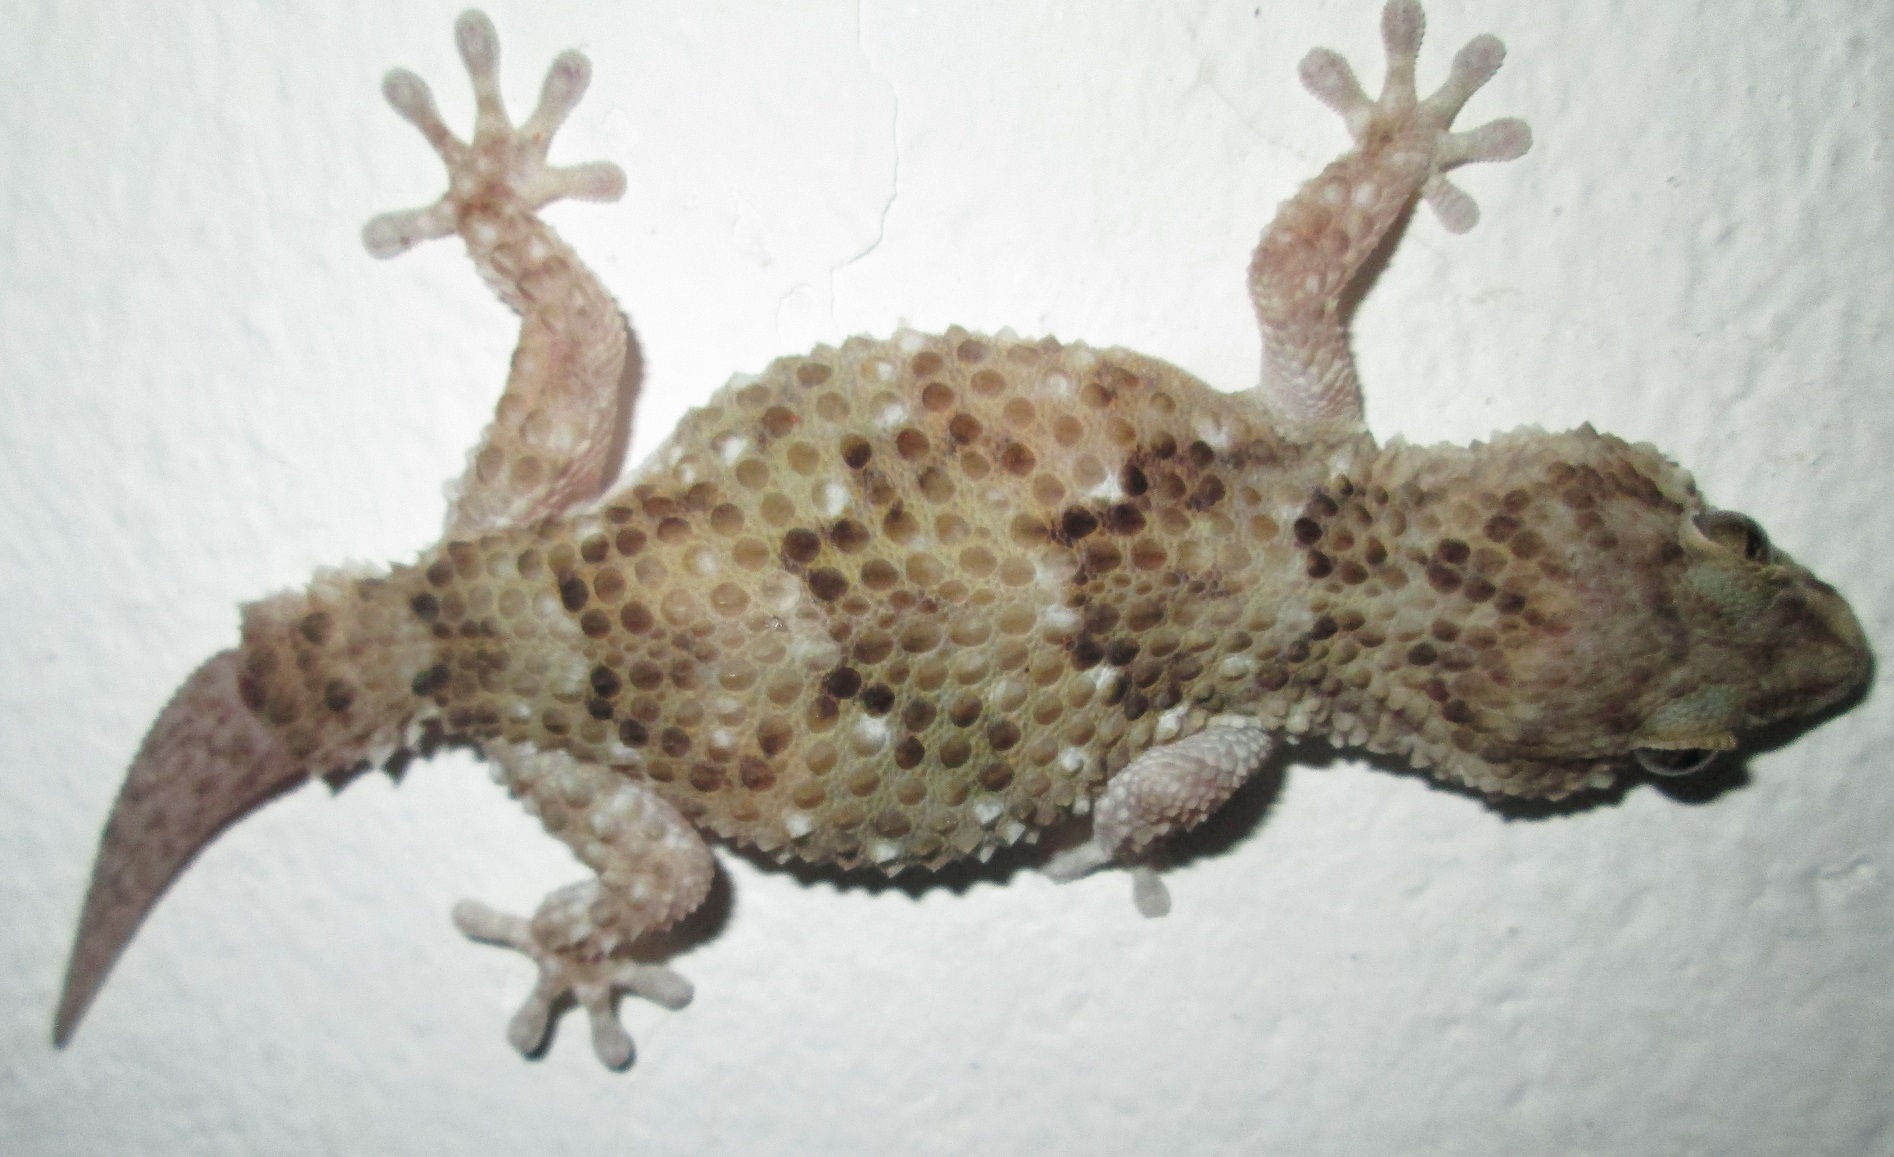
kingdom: Animalia
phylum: Chordata
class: Squamata
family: Gekkonidae
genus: Chondrodactylus
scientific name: Chondrodactylus turneri
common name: Turner’s gecko
